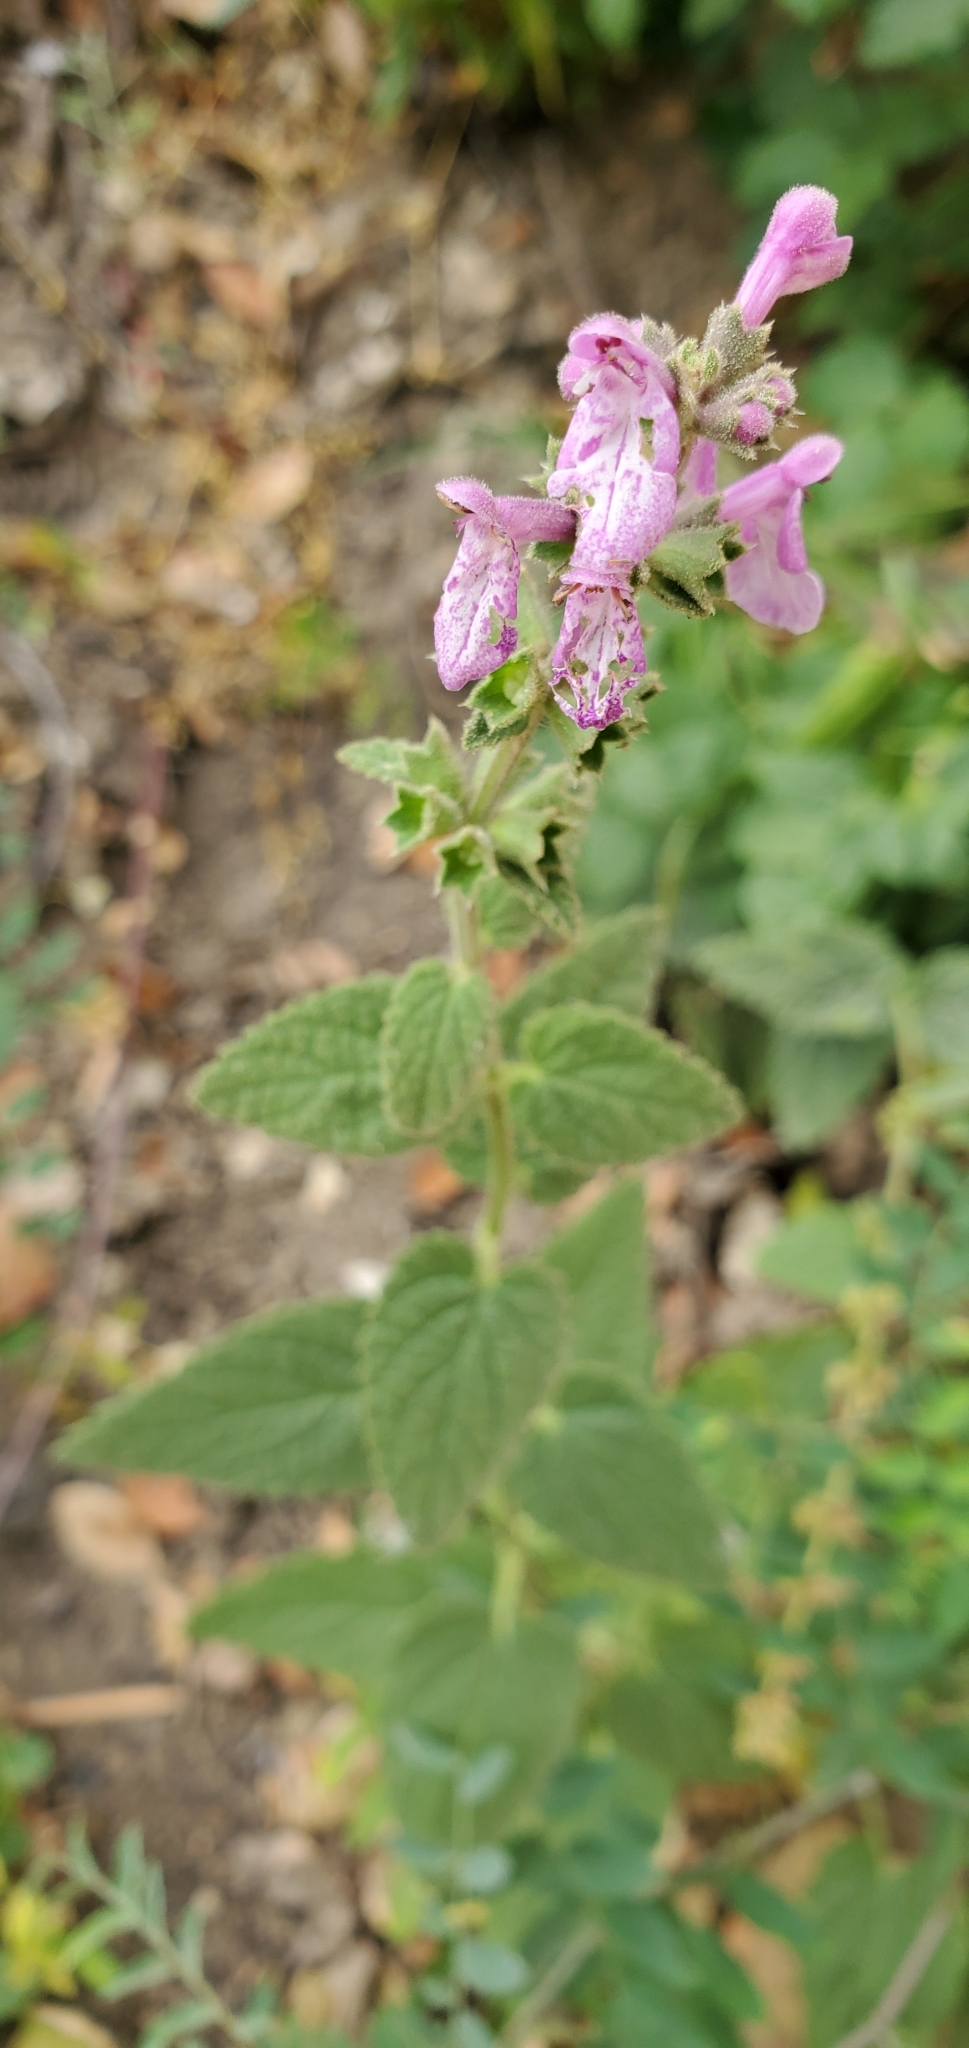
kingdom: Plantae
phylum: Tracheophyta
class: Magnoliopsida
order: Lamiales
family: Lamiaceae
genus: Stachys
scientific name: Stachys bullata
